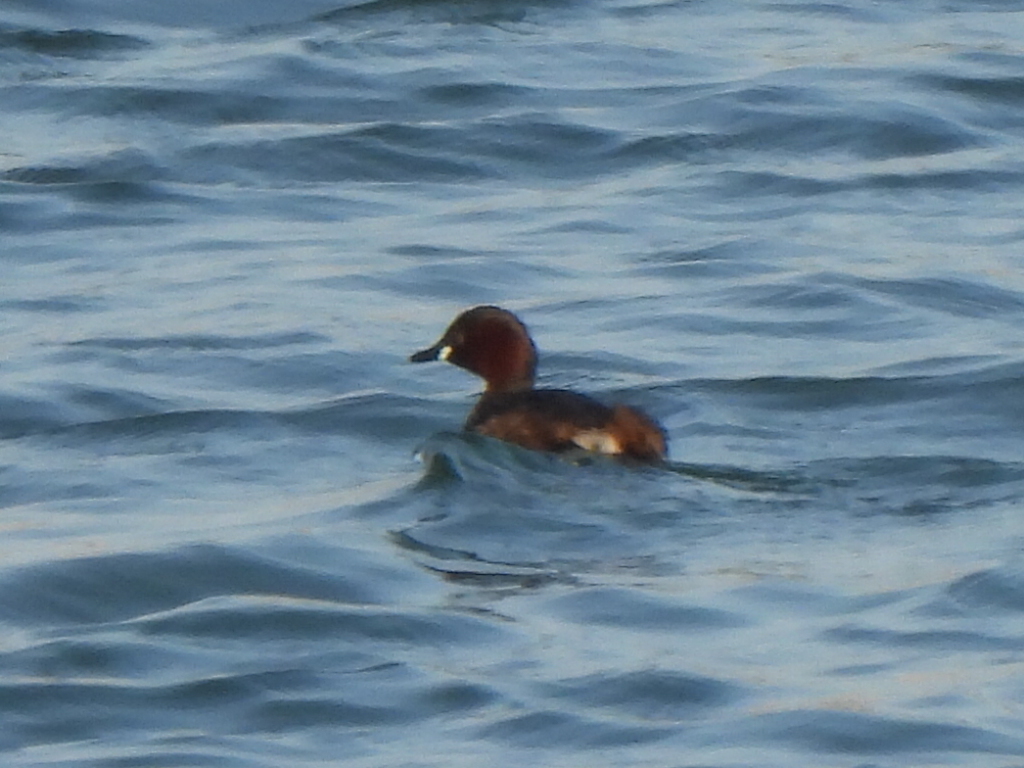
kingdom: Animalia
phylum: Chordata
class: Aves
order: Podicipediformes
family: Podicipedidae
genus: Tachybaptus
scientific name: Tachybaptus ruficollis
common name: Little grebe
